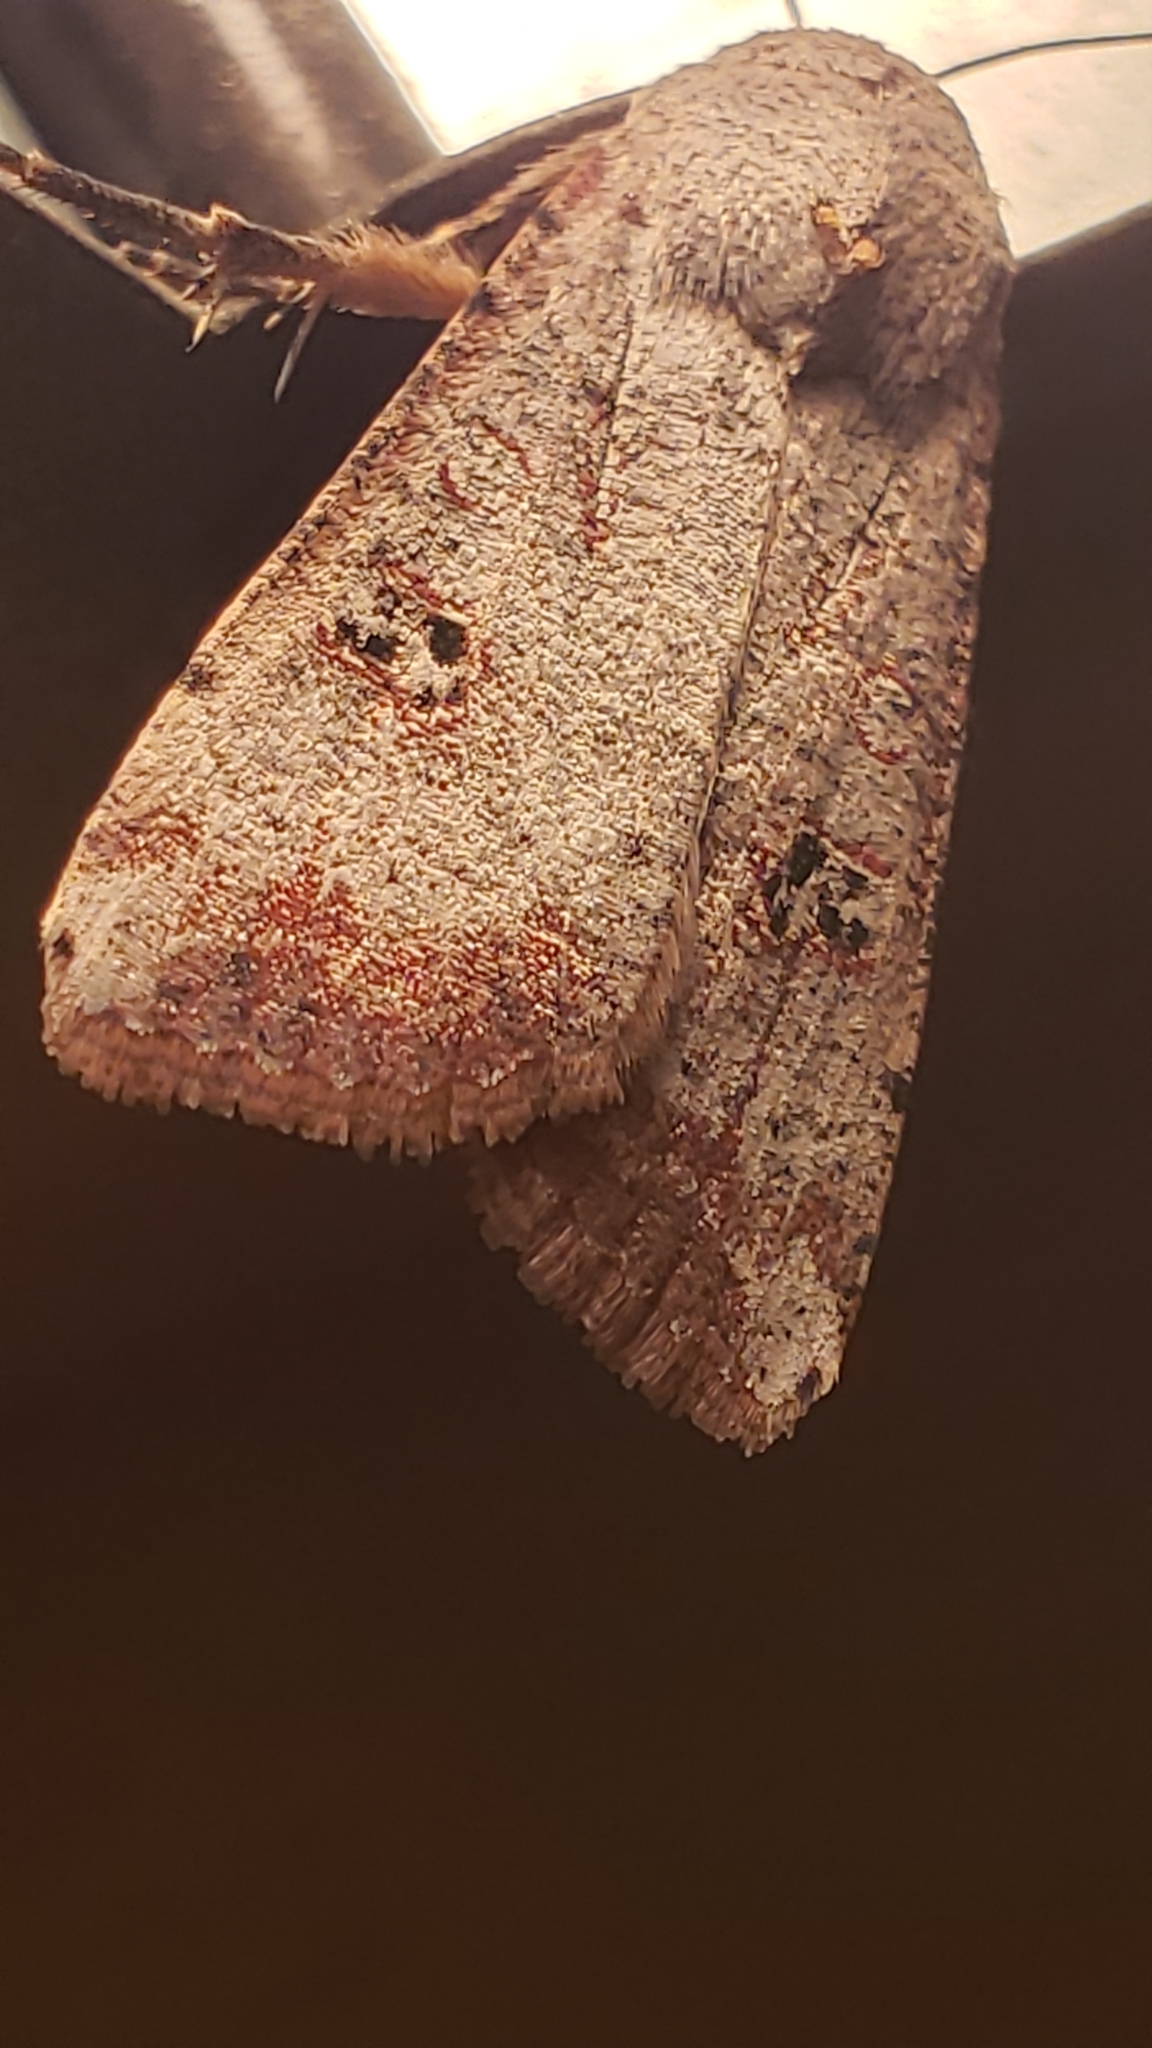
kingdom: Animalia
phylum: Arthropoda
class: Insecta
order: Lepidoptera
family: Noctuidae
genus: Anicla
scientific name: Anicla infecta
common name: Green cutworm
